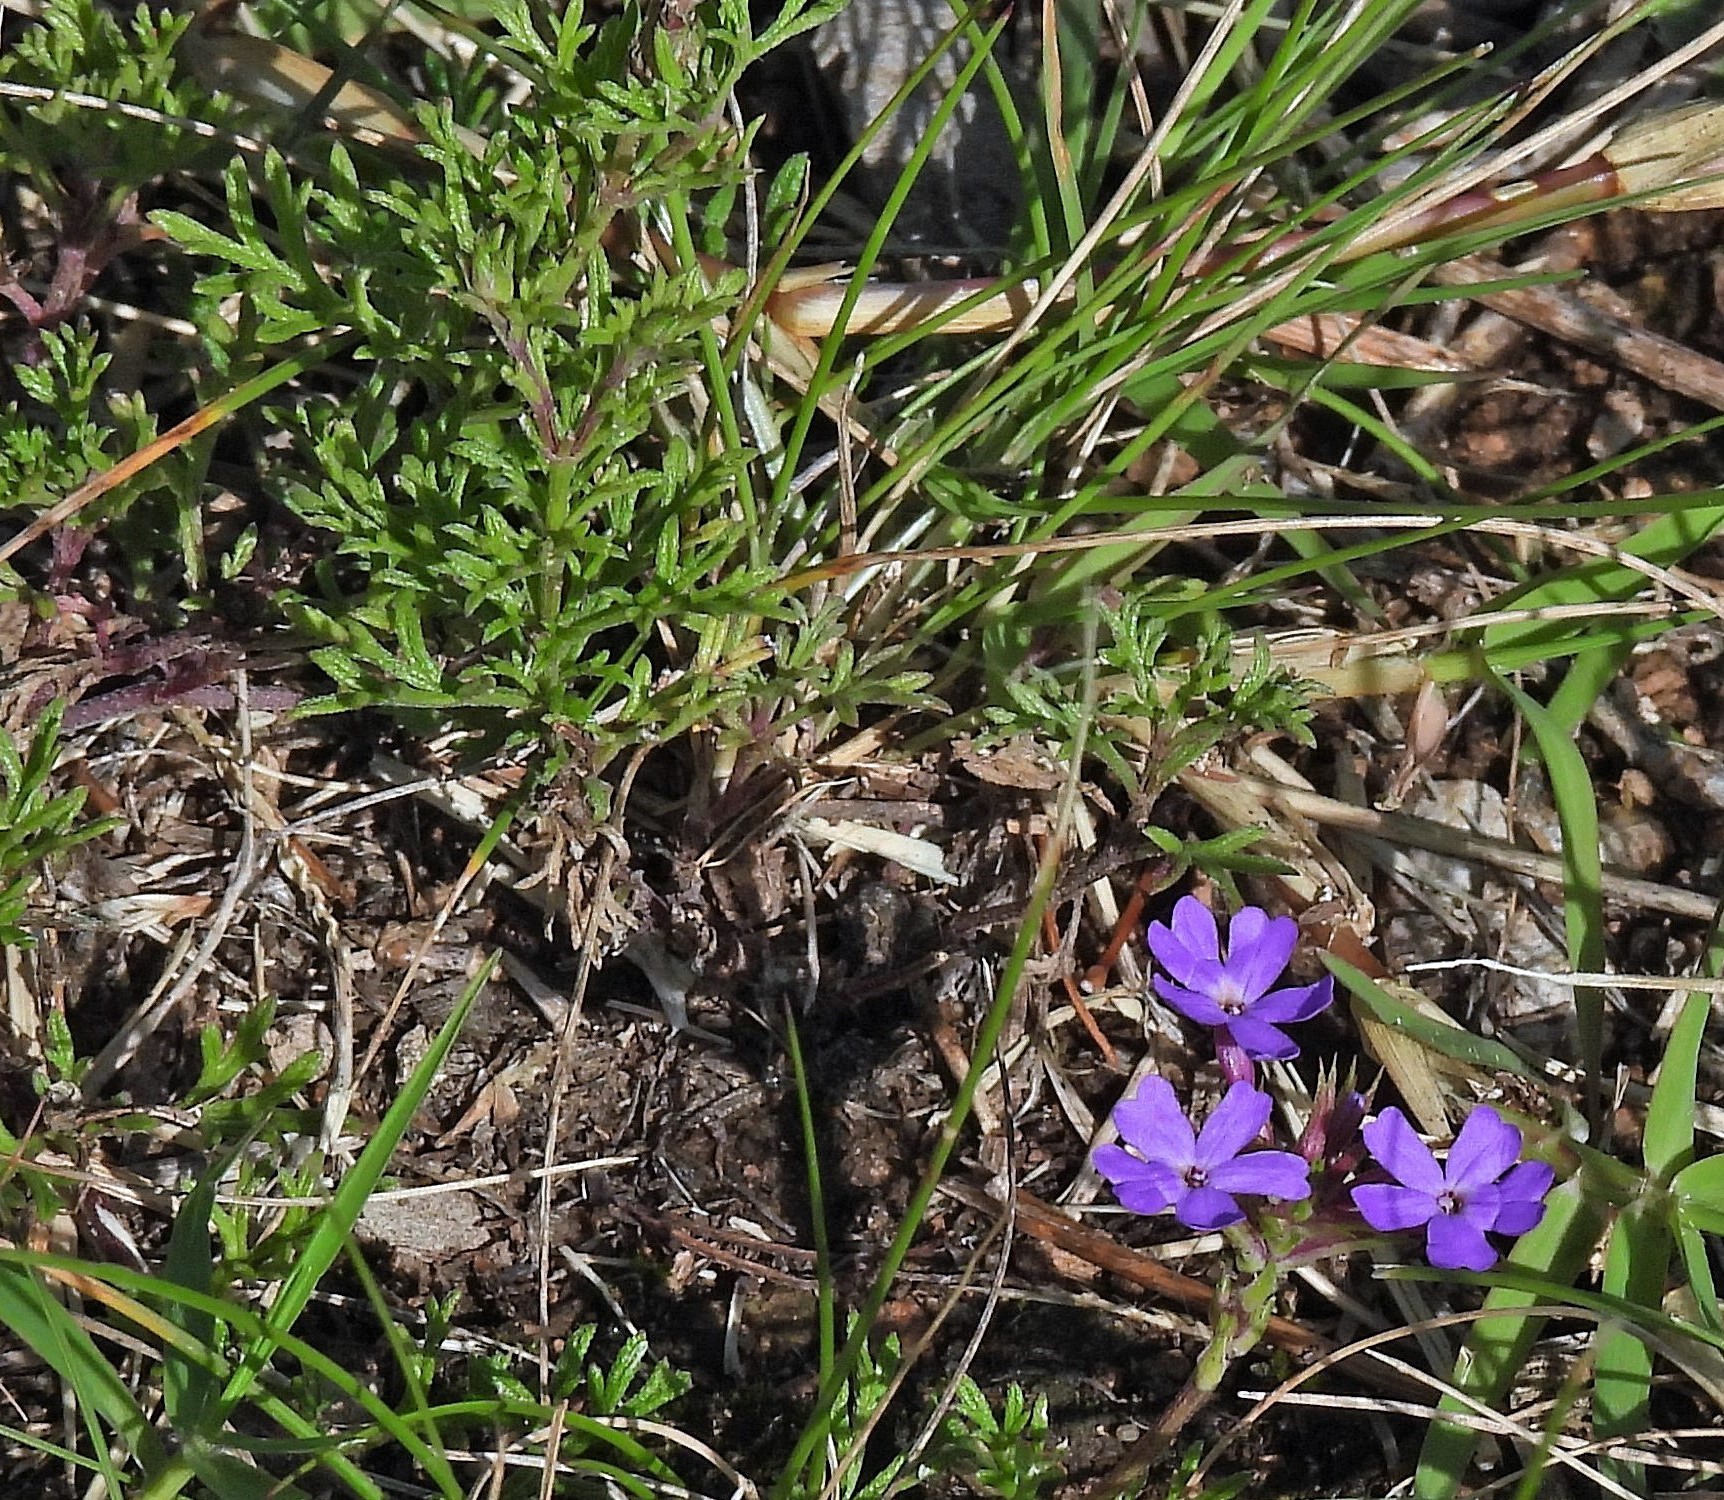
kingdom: Plantae
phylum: Tracheophyta
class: Magnoliopsida
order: Lamiales
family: Verbenaceae
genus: Verbena
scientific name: Verbena tenera
